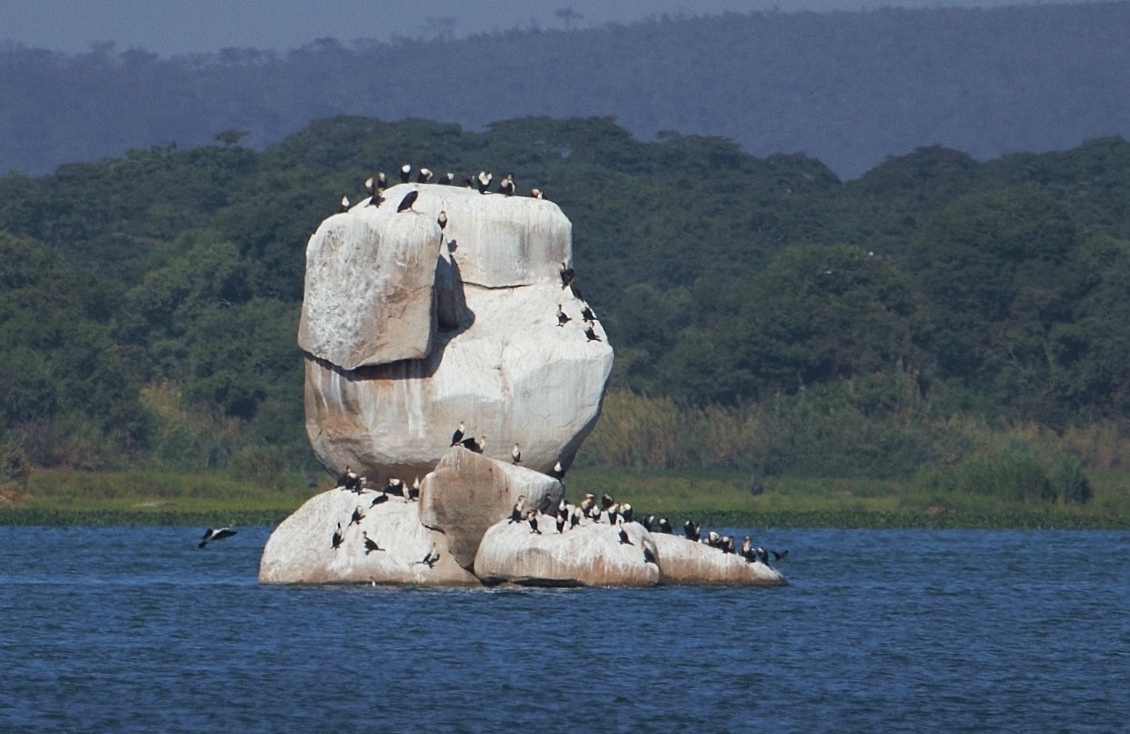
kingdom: Animalia
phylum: Chordata
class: Aves
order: Suliformes
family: Phalacrocoracidae
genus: Phalacrocorax
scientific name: Phalacrocorax carbo
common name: Great cormorant
